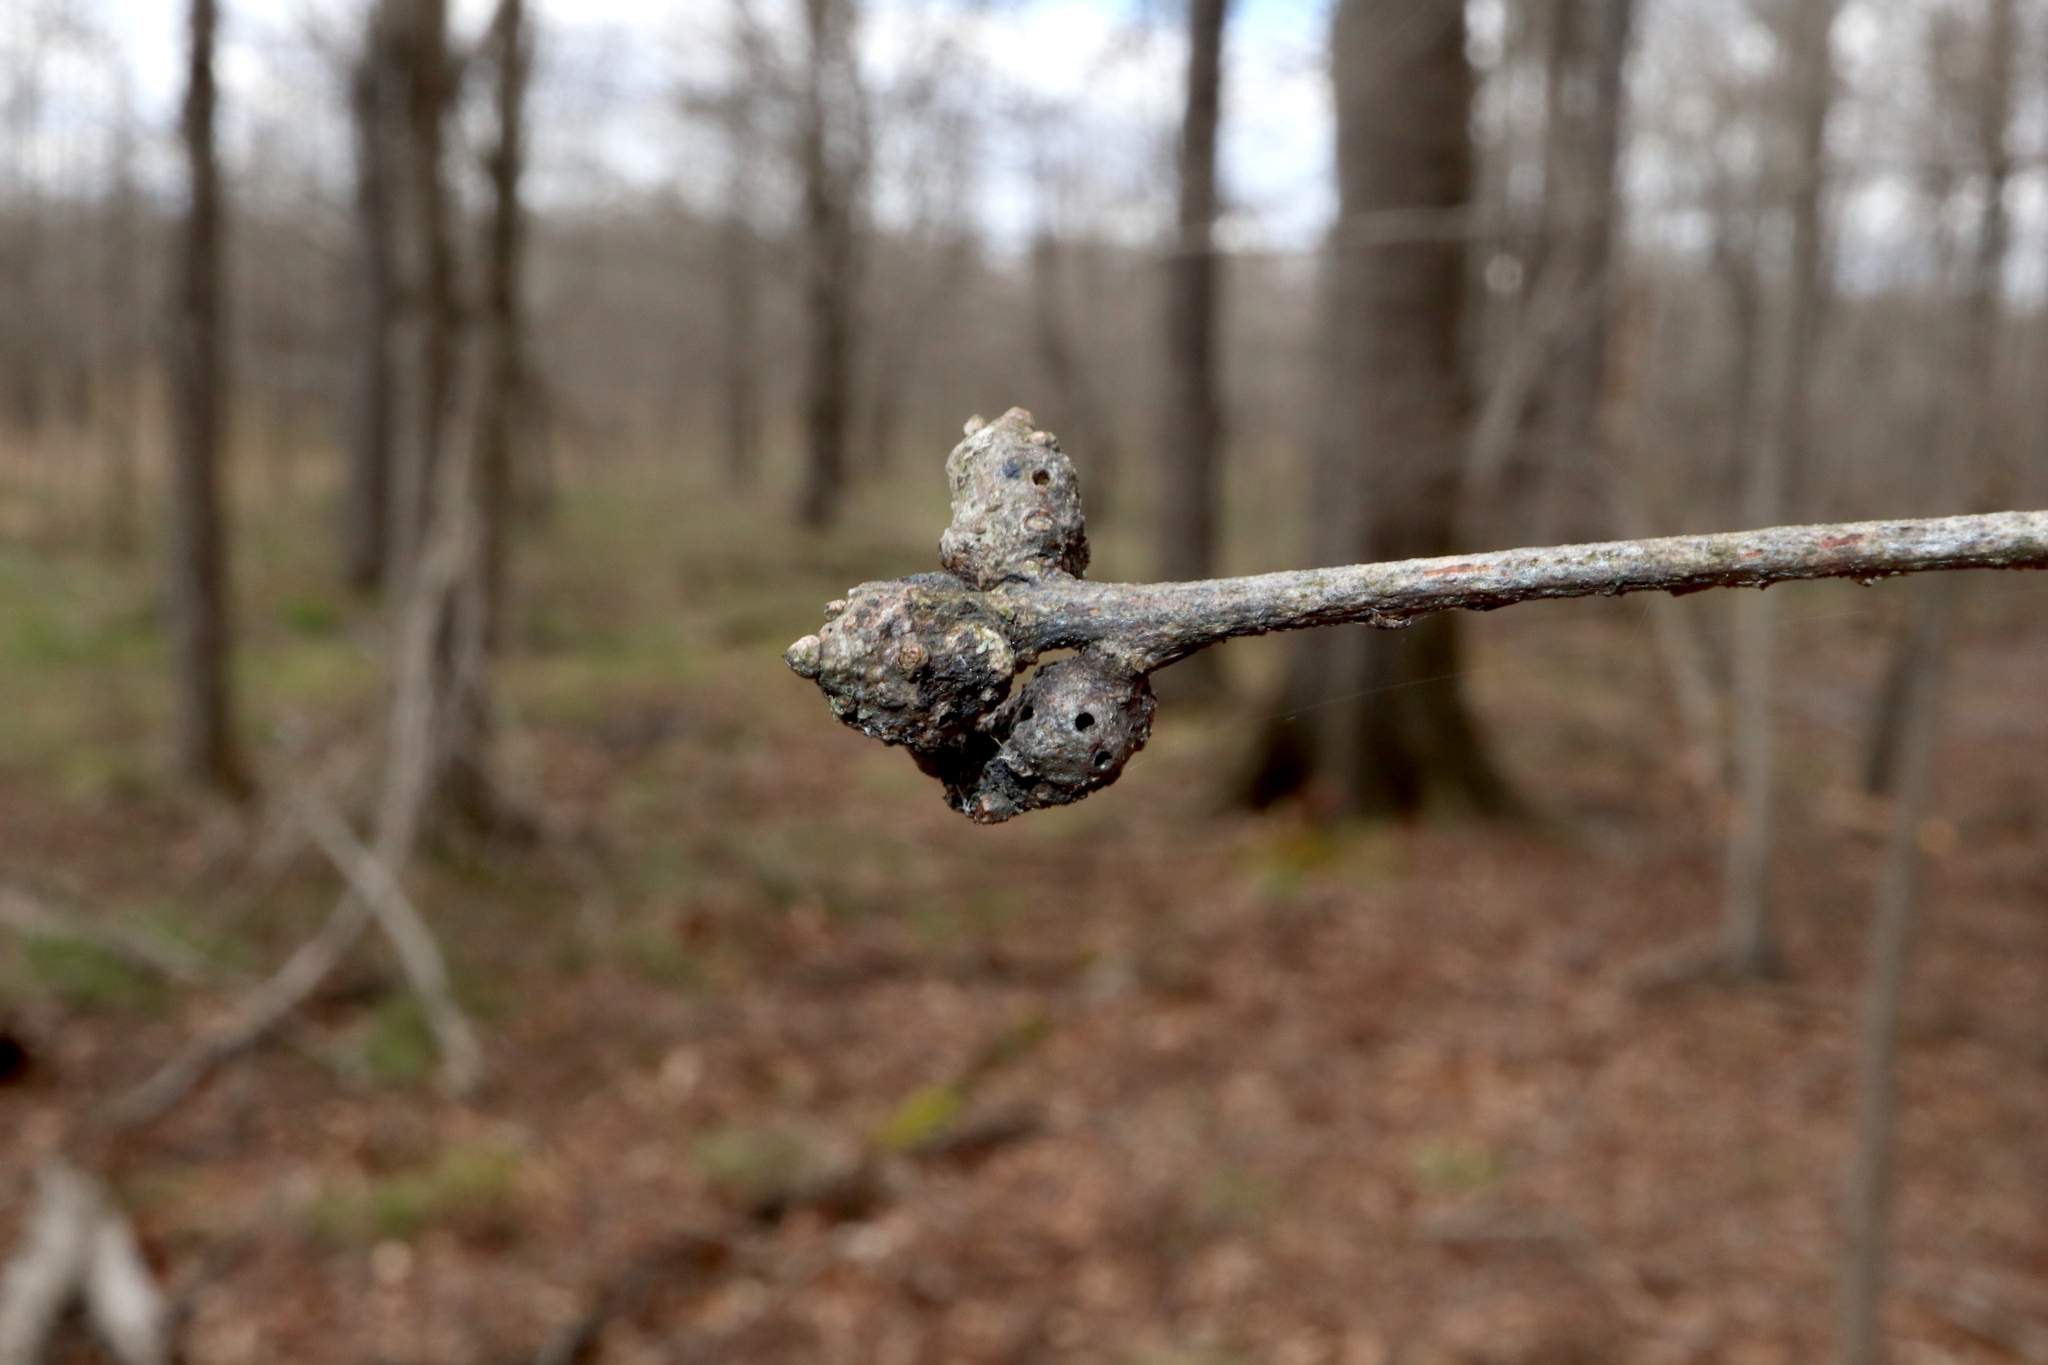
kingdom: Animalia
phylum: Arthropoda
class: Insecta
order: Hymenoptera
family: Cynipidae
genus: Callirhytis
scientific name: Callirhytis
